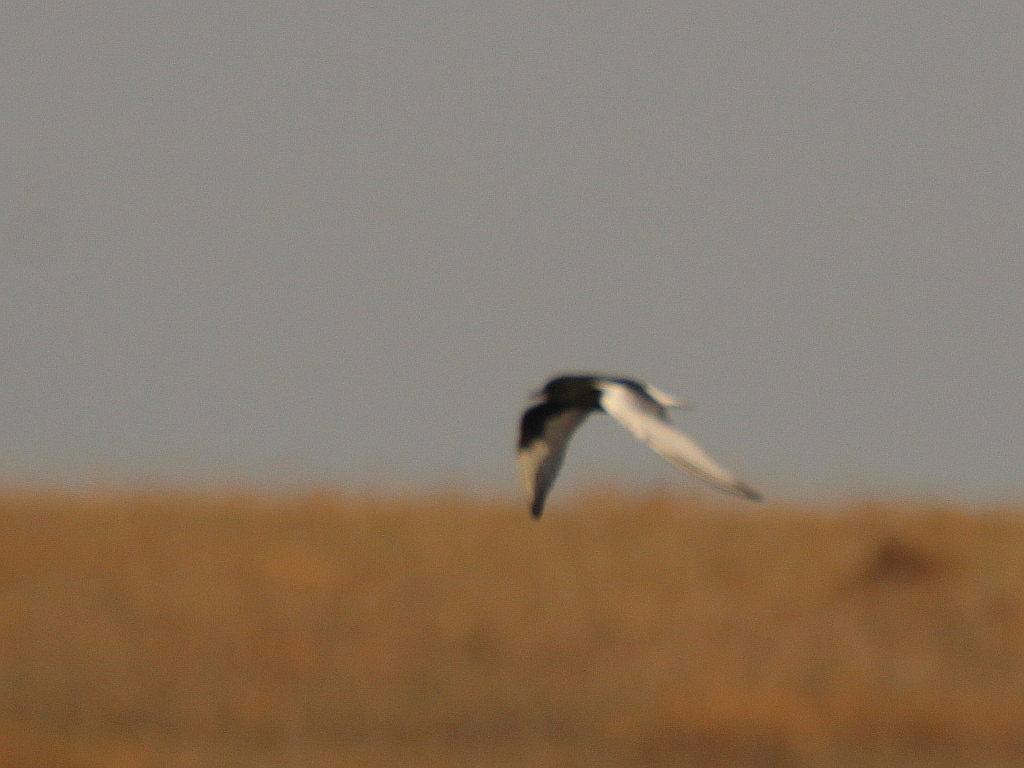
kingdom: Animalia
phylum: Chordata
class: Aves
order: Charadriiformes
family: Laridae
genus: Chlidonias
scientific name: Chlidonias leucopterus
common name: White-winged tern
